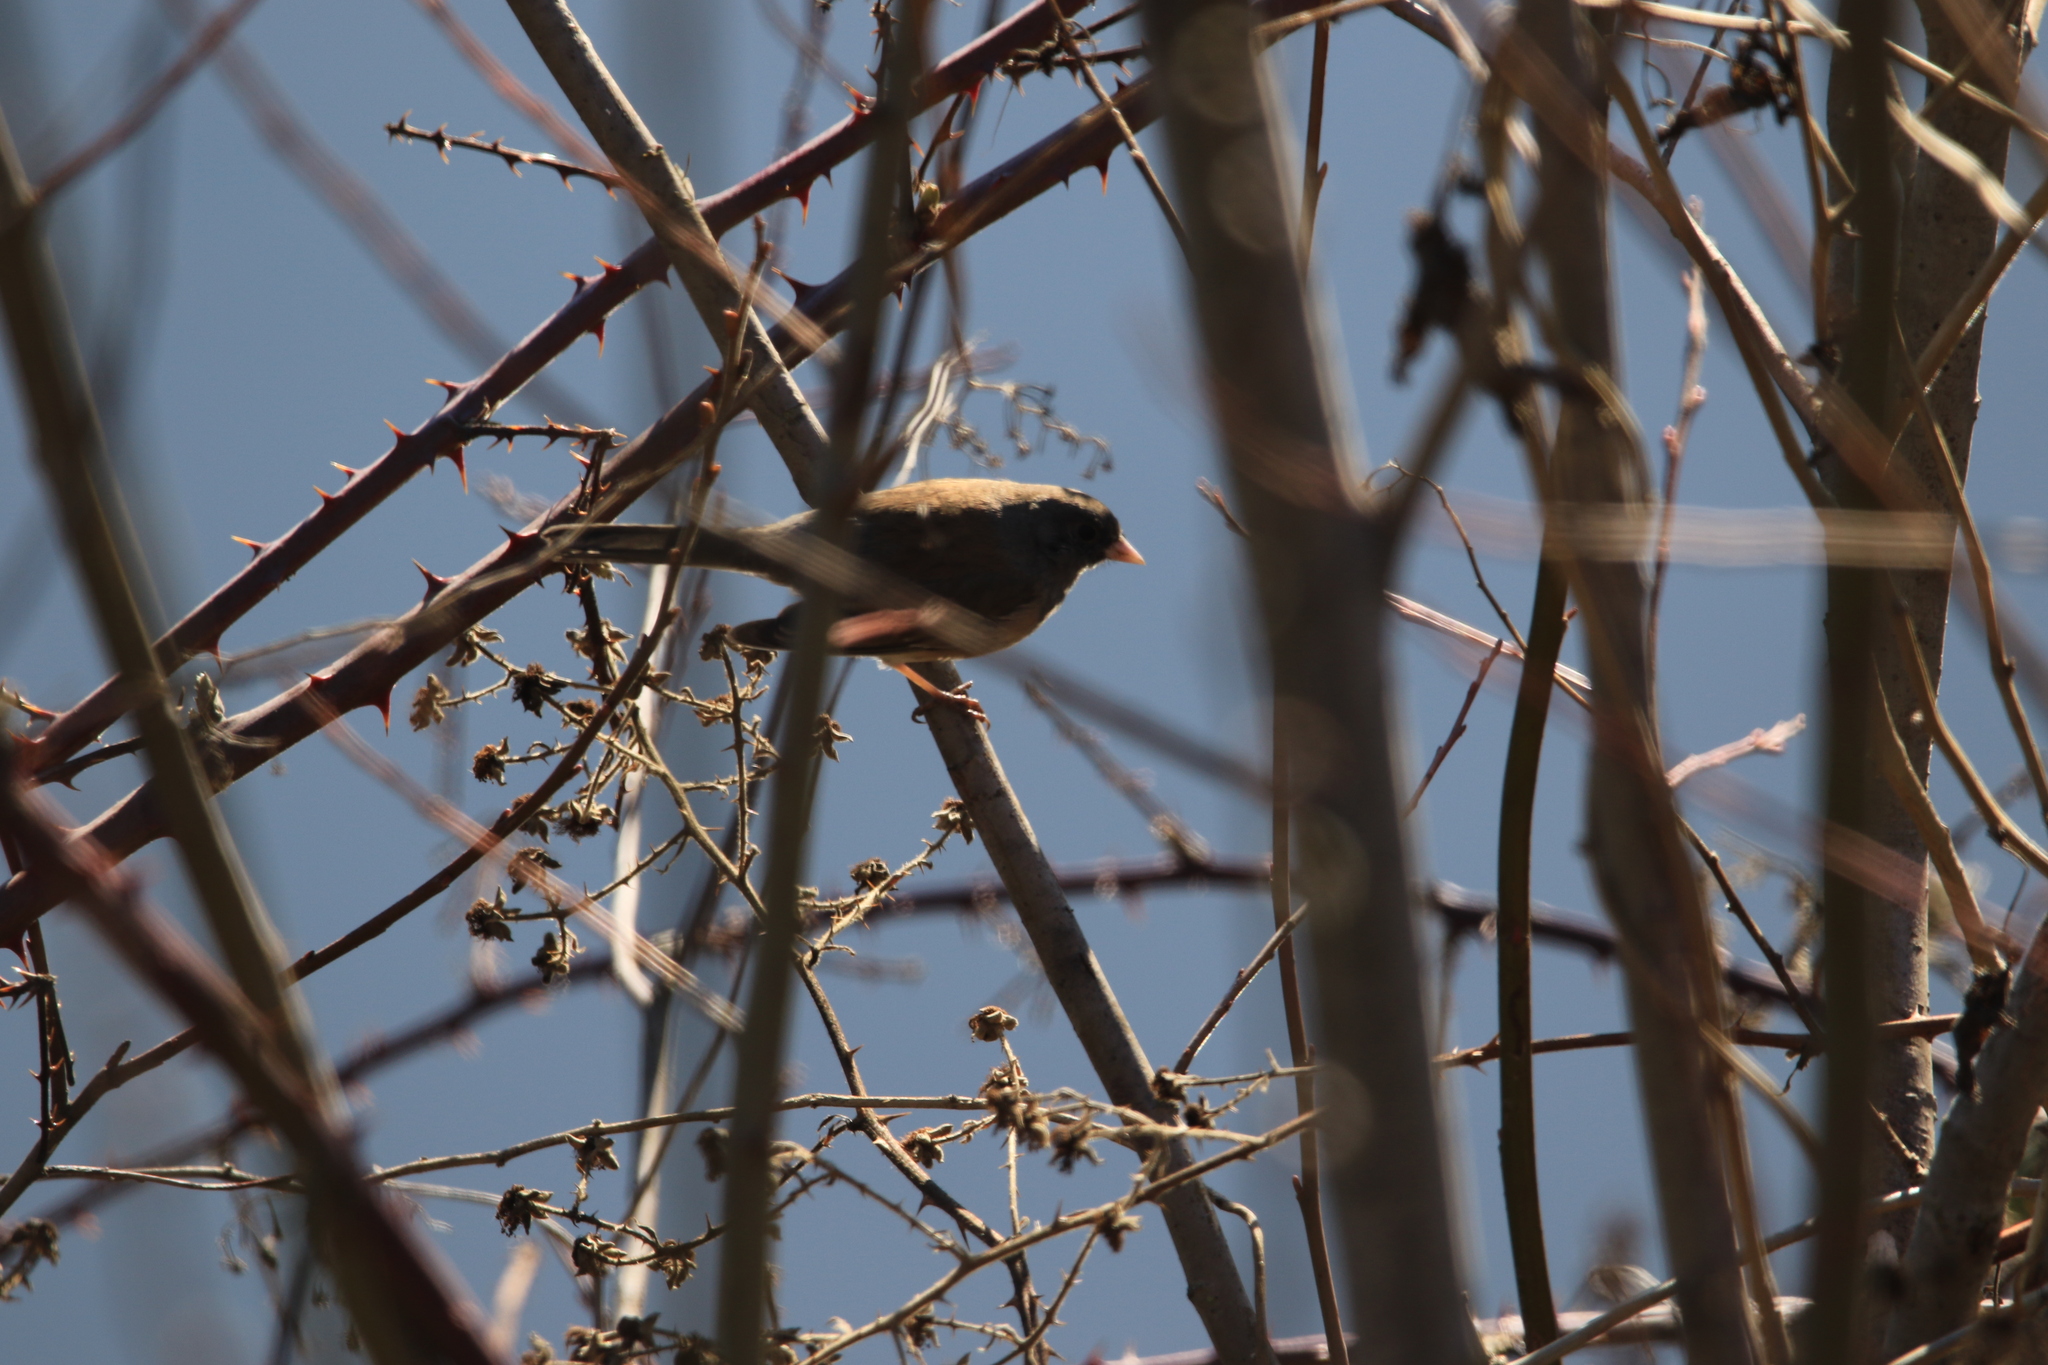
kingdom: Animalia
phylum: Chordata
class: Aves
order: Passeriformes
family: Passerellidae
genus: Junco
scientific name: Junco hyemalis
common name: Dark-eyed junco
